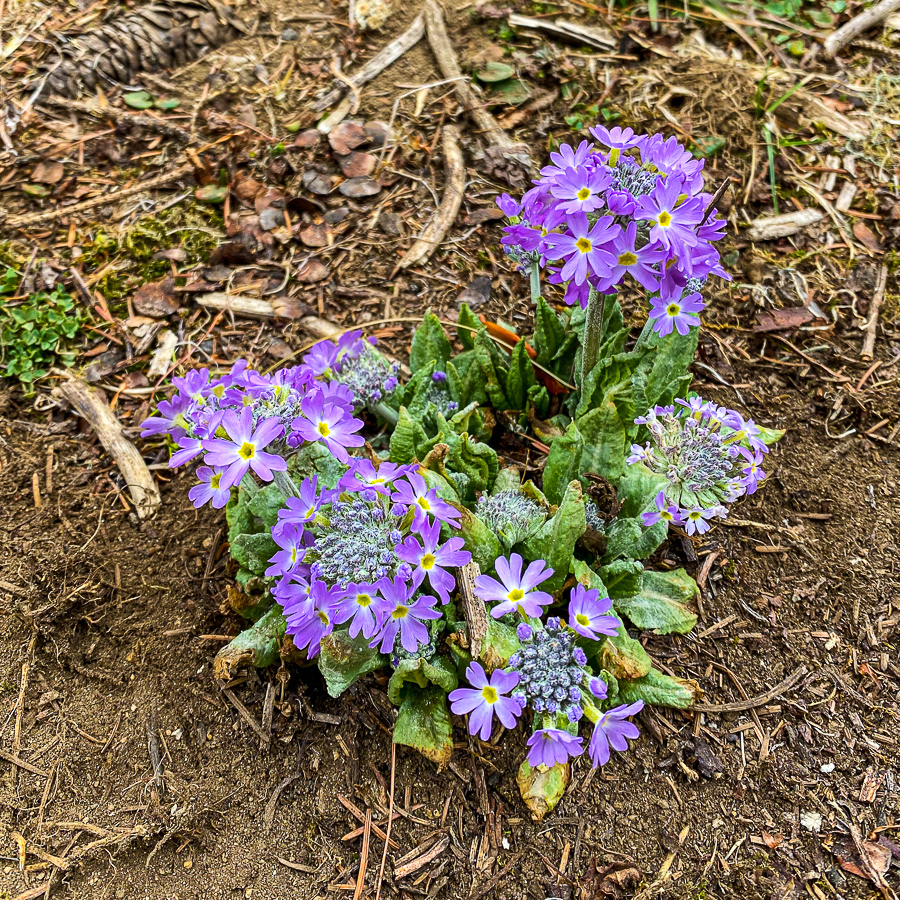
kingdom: Plantae
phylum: Tracheophyta
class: Magnoliopsida
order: Ericales
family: Primulaceae
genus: Primula
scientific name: Primula denticulata
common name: Drumstick primula
